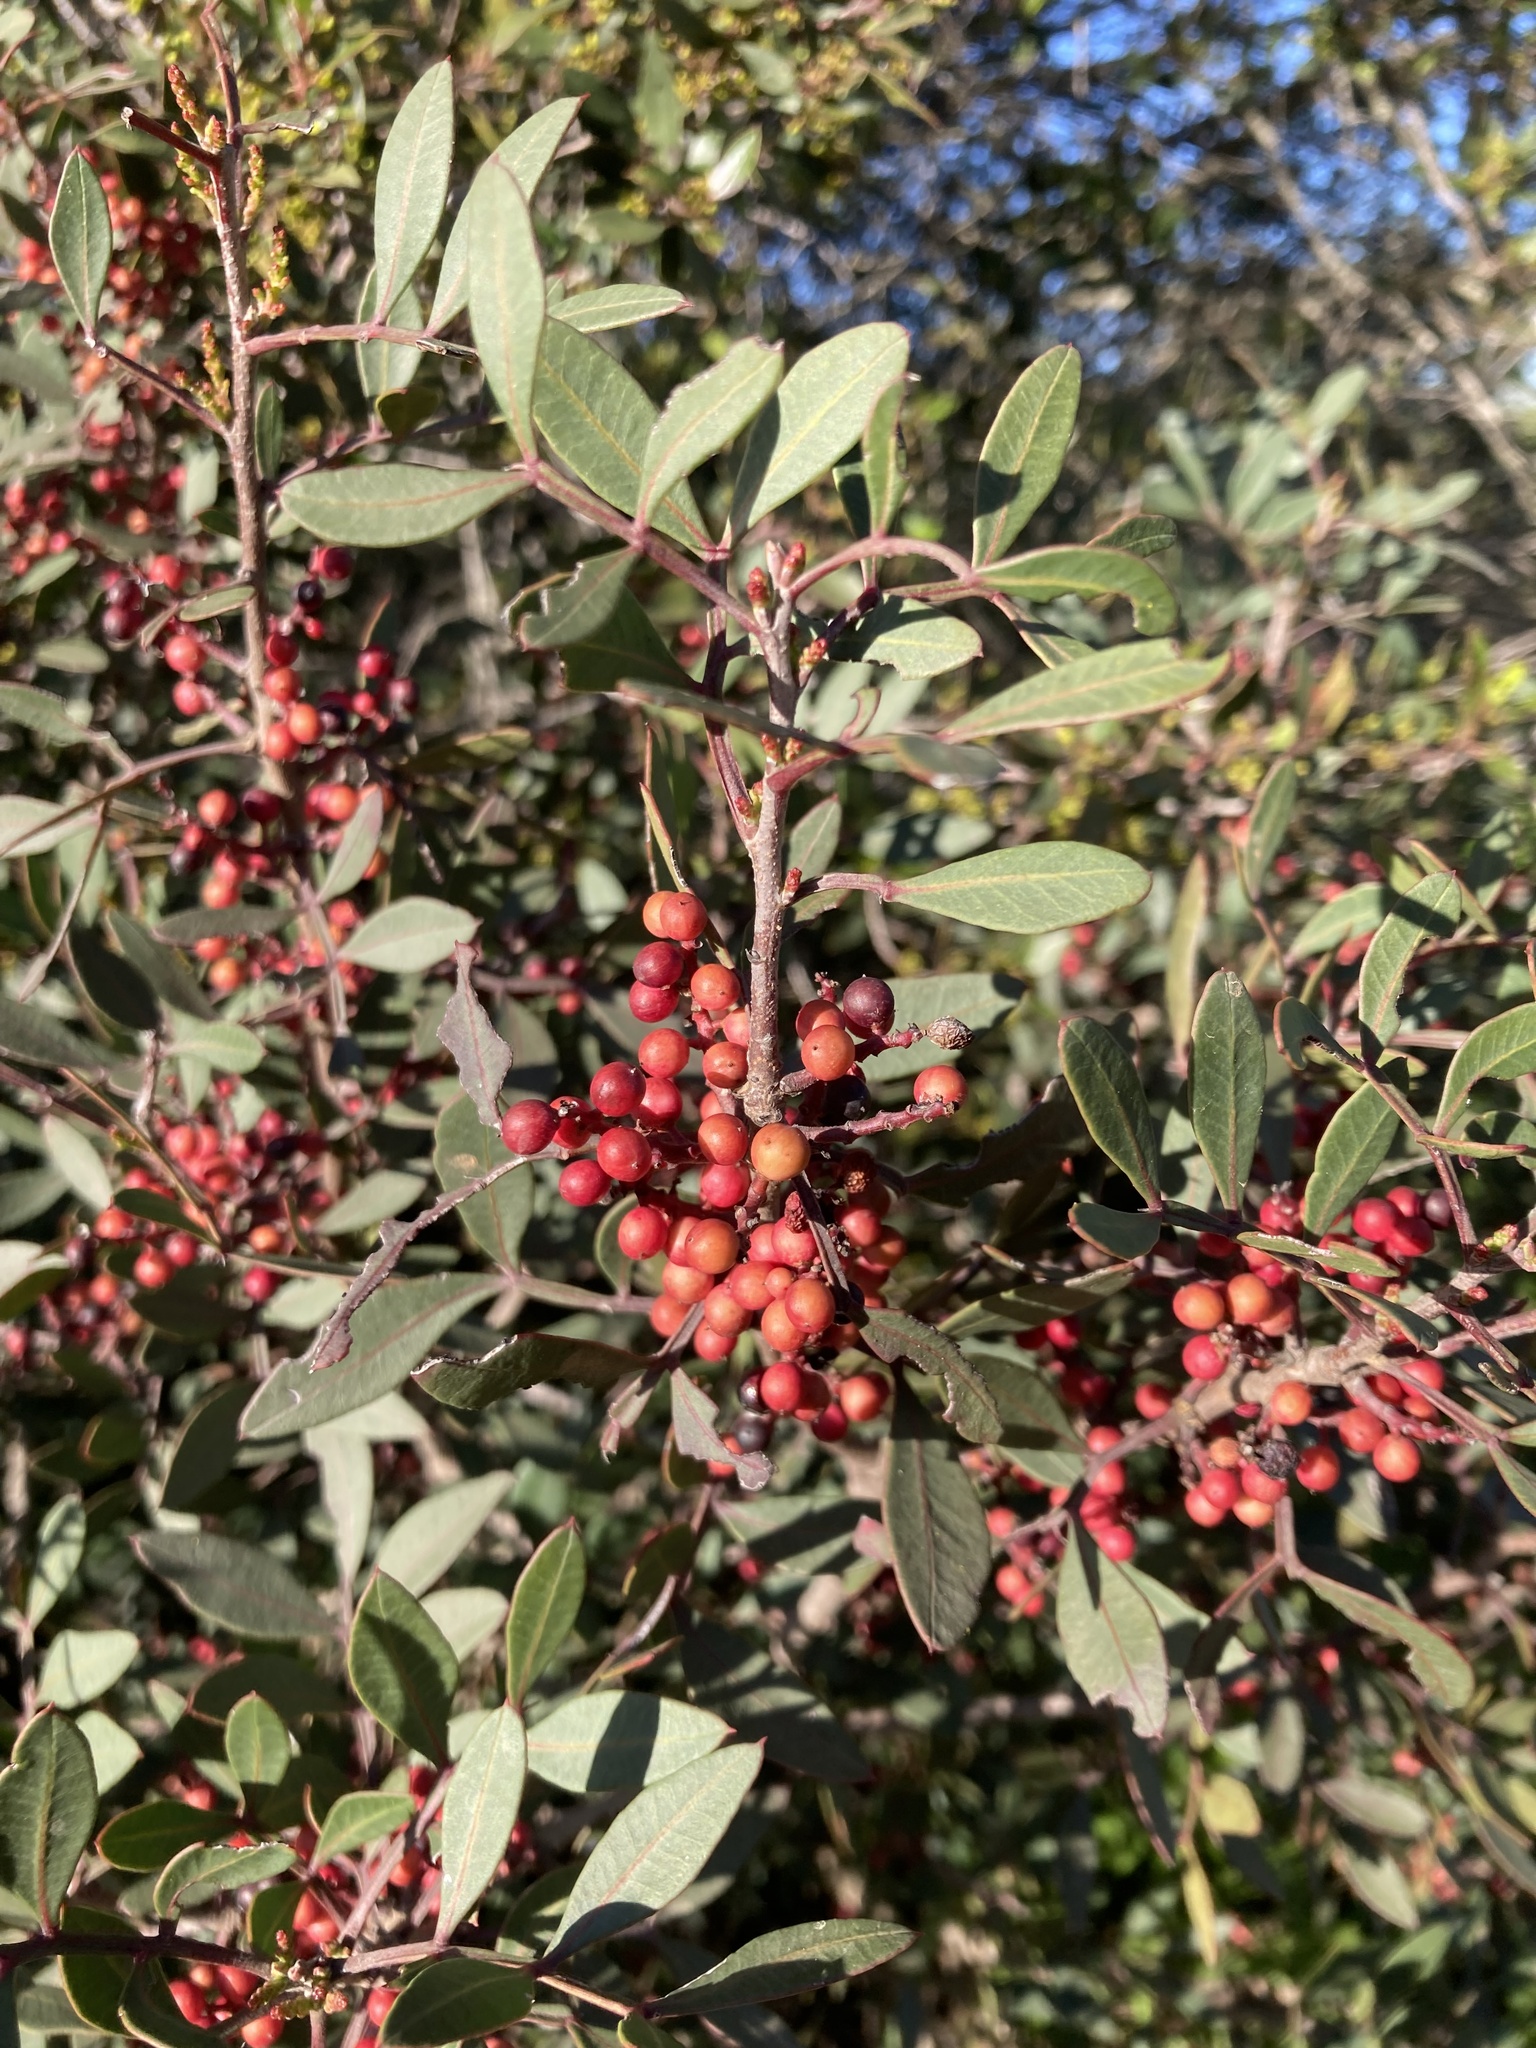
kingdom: Plantae
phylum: Tracheophyta
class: Magnoliopsida
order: Sapindales
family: Anacardiaceae
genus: Pistacia
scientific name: Pistacia lentiscus
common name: Lentisk
